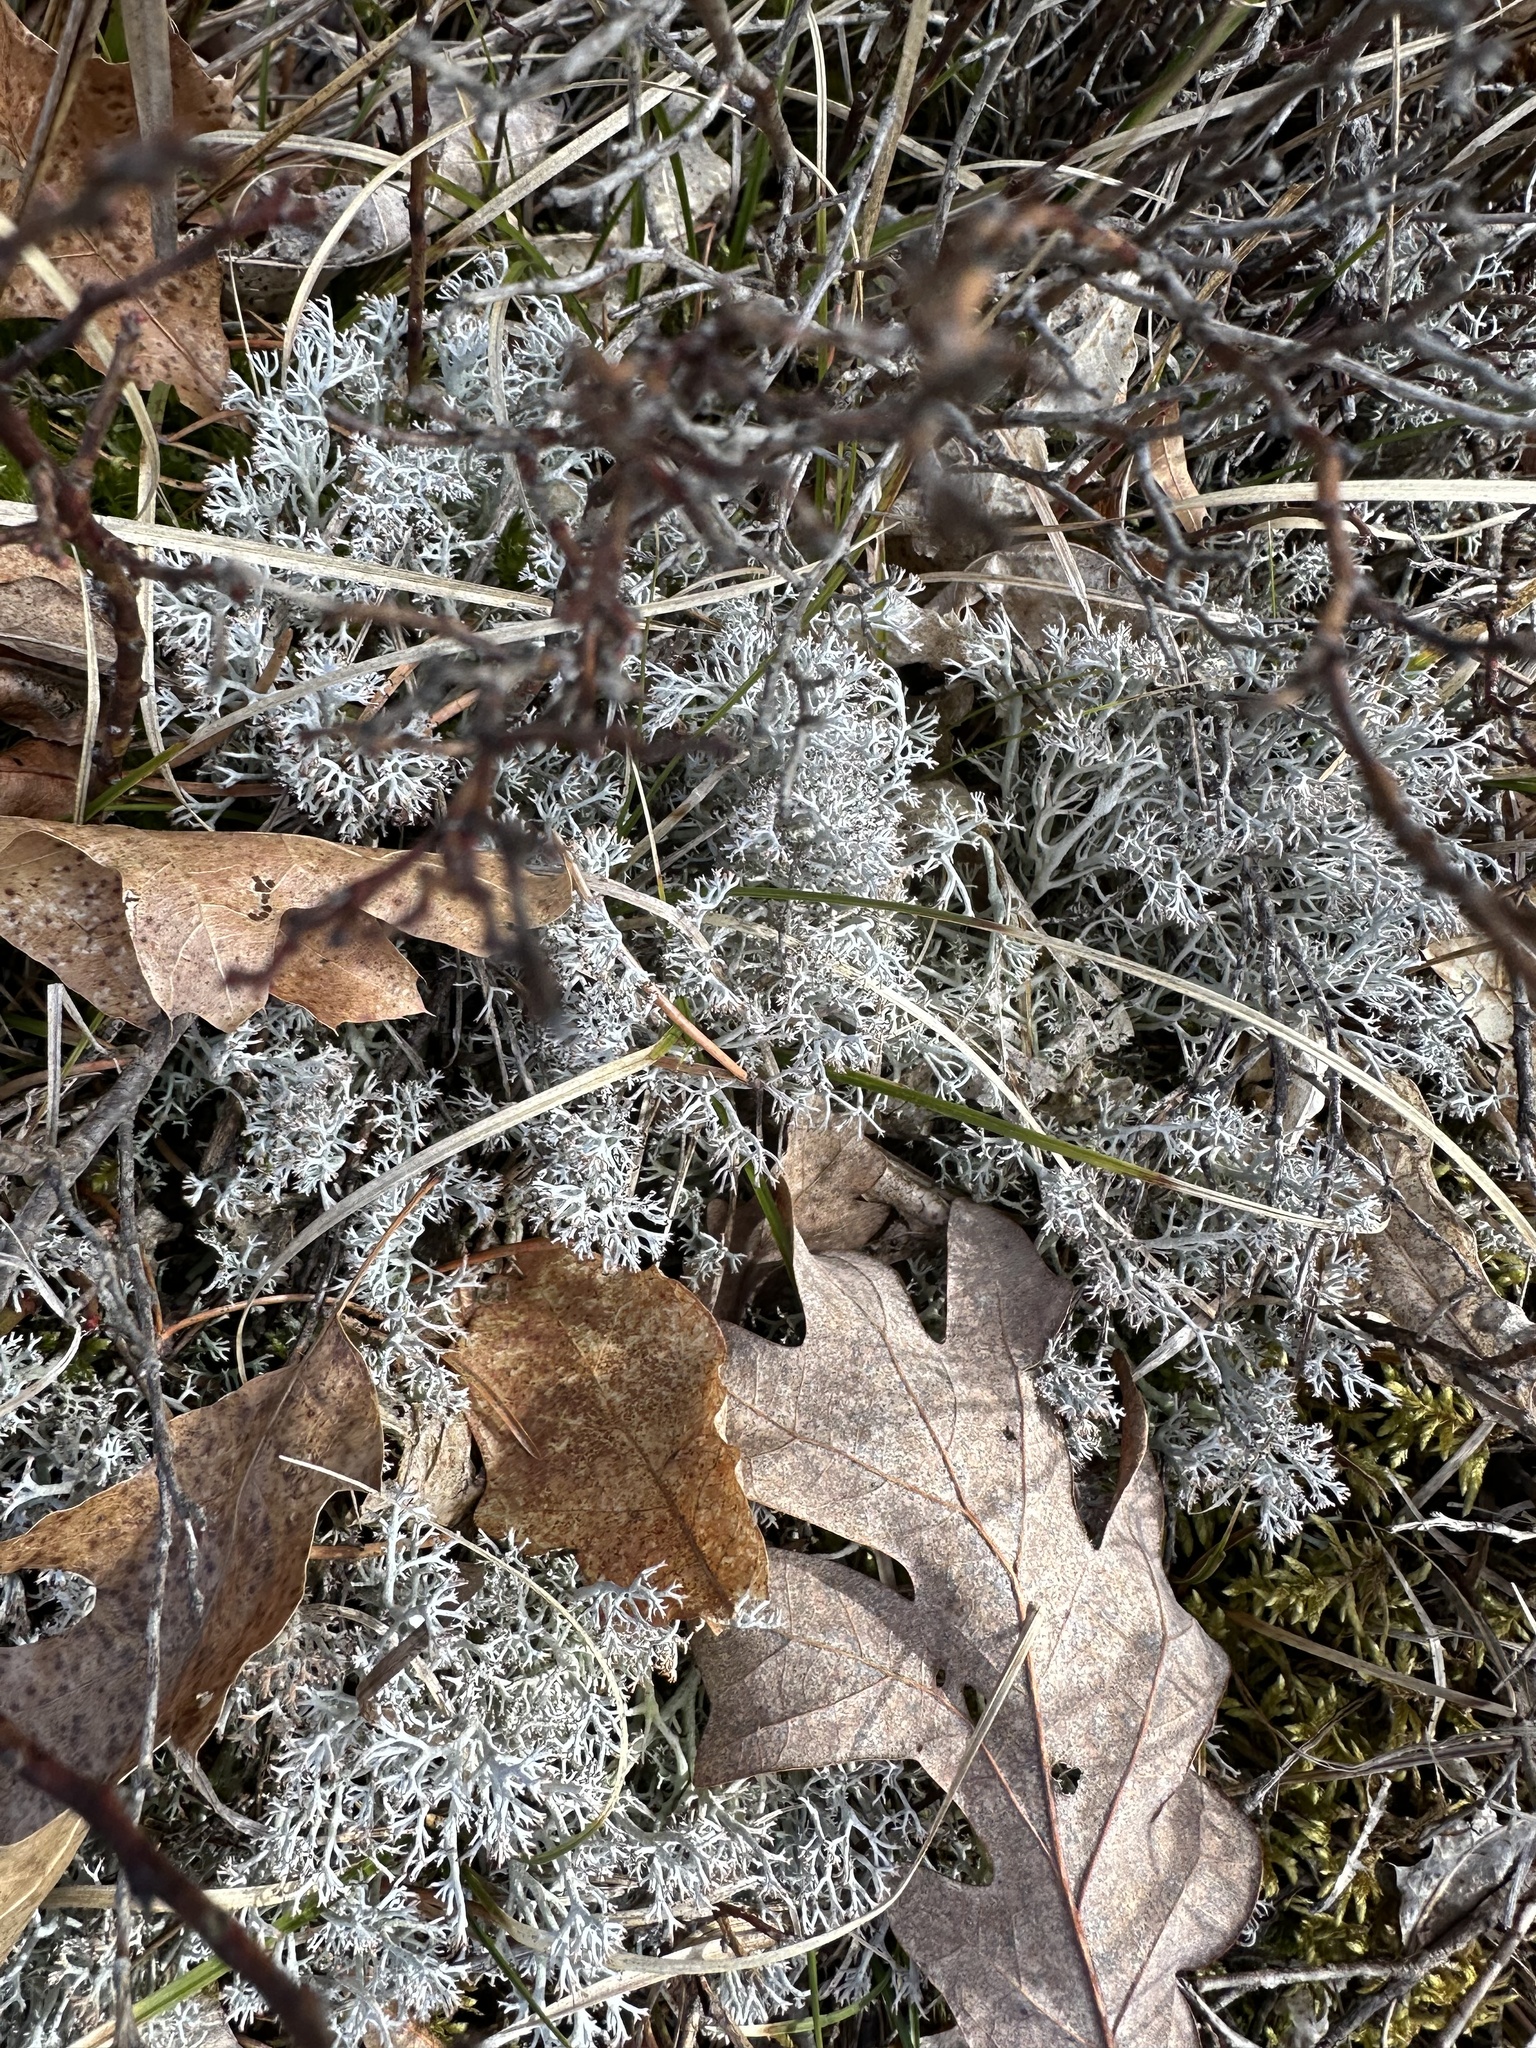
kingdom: Fungi
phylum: Ascomycota
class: Lecanoromycetes
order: Lecanorales
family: Cladoniaceae
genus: Cladonia
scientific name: Cladonia rangiferina
